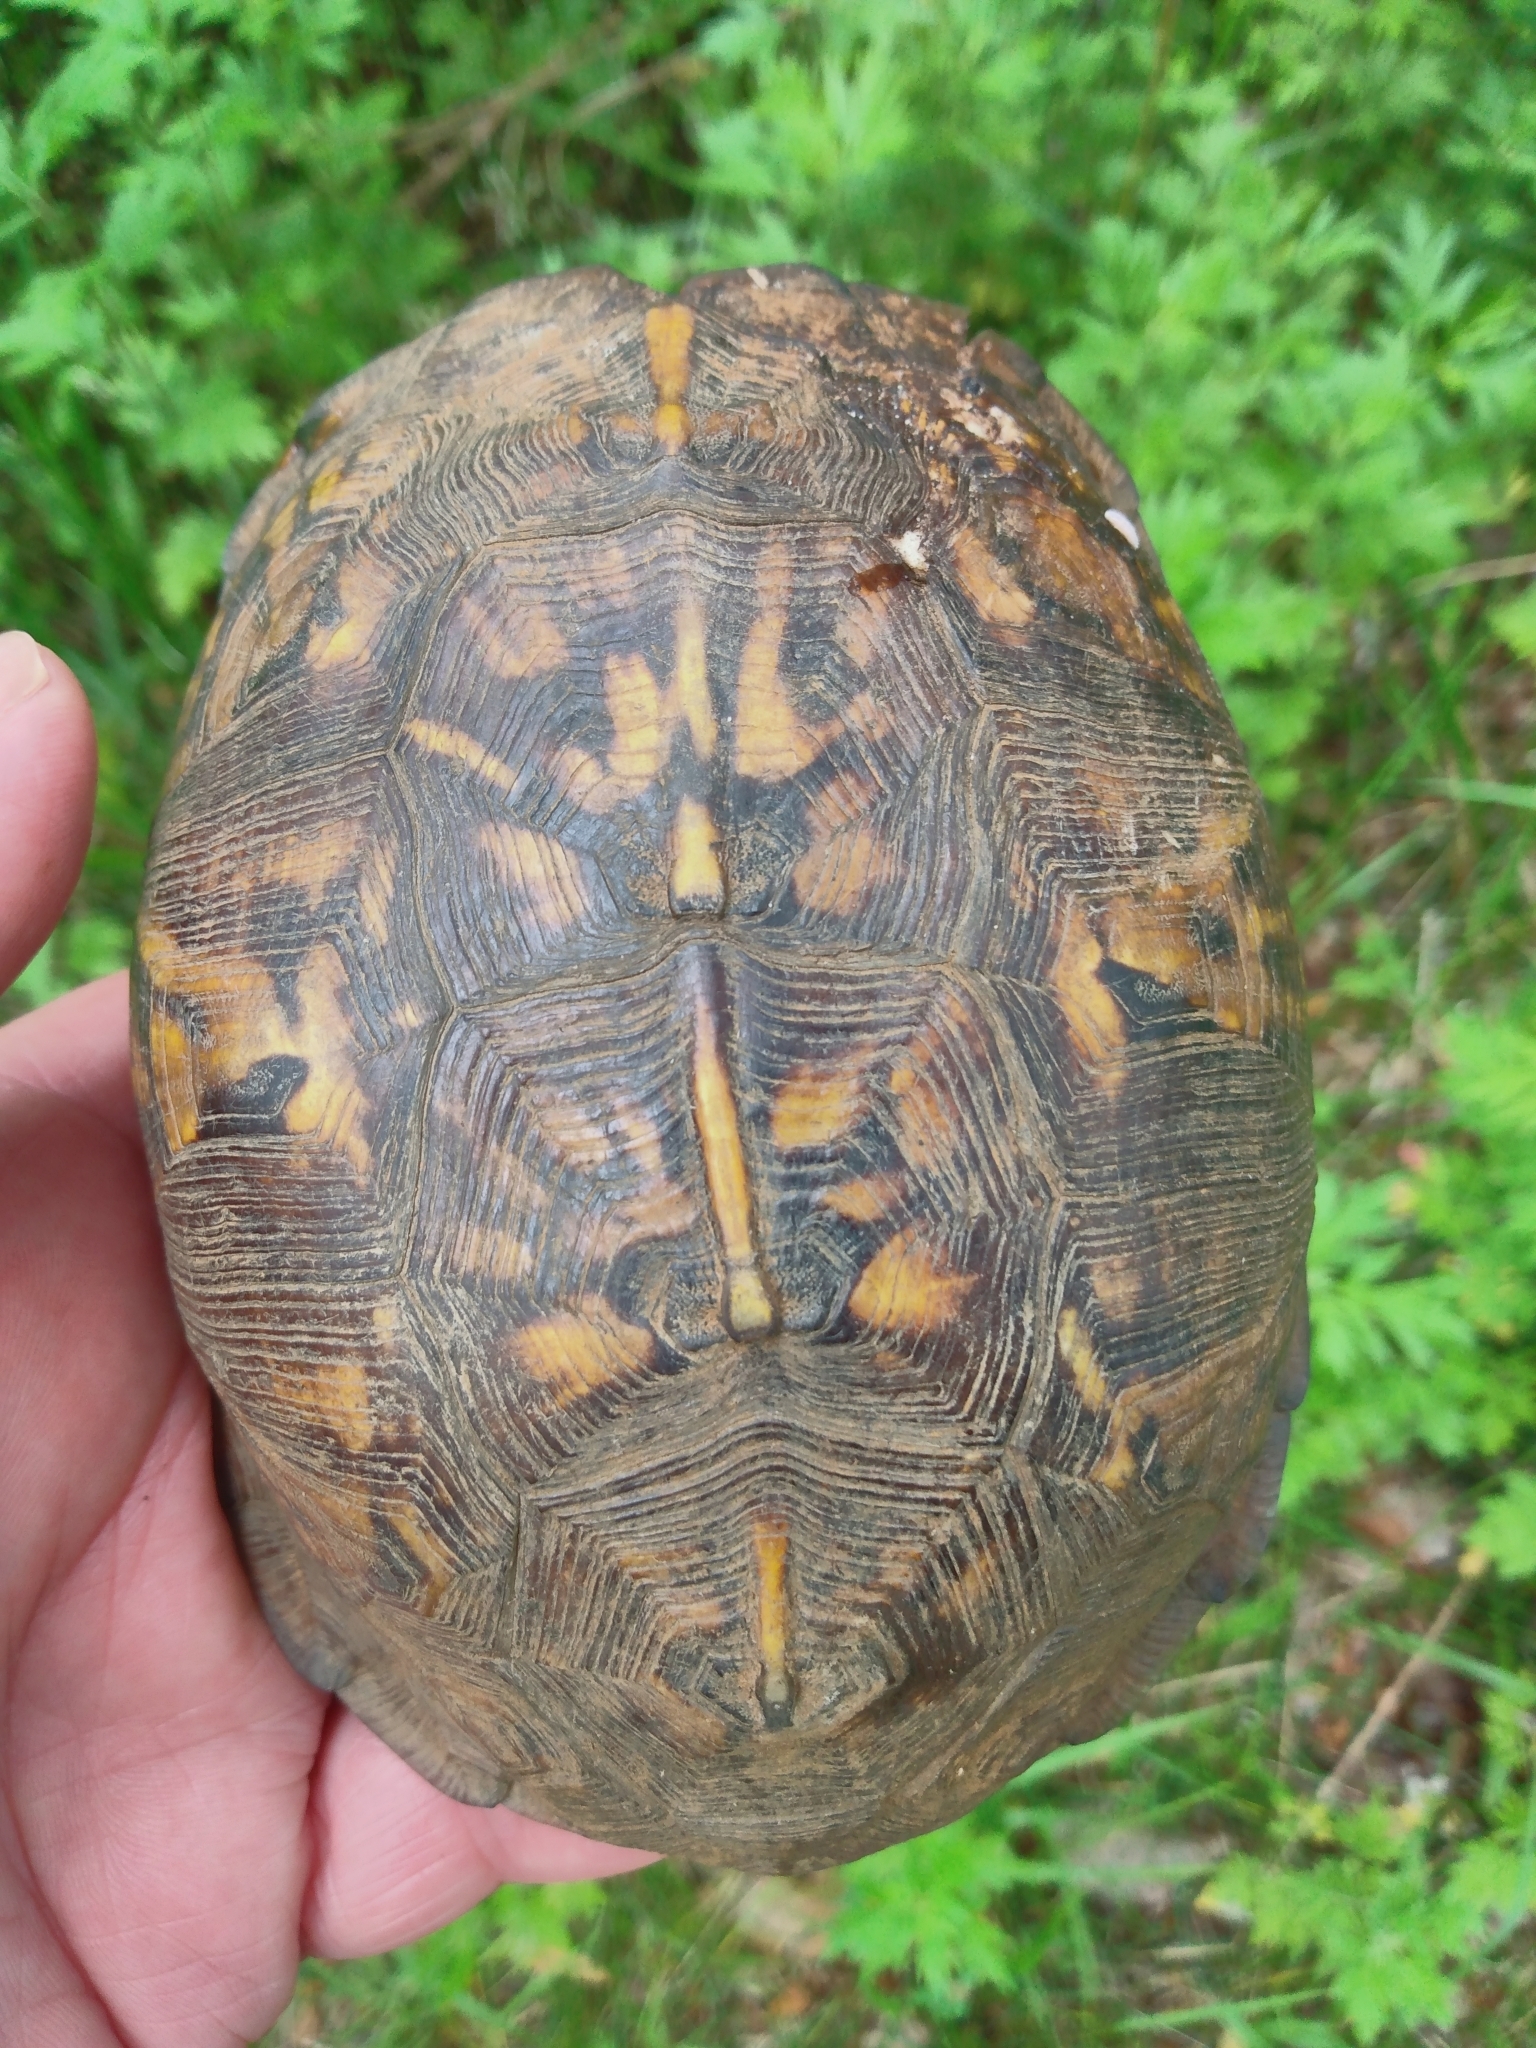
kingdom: Animalia
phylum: Chordata
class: Testudines
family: Emydidae
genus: Terrapene
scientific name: Terrapene carolina
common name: Common box turtle
